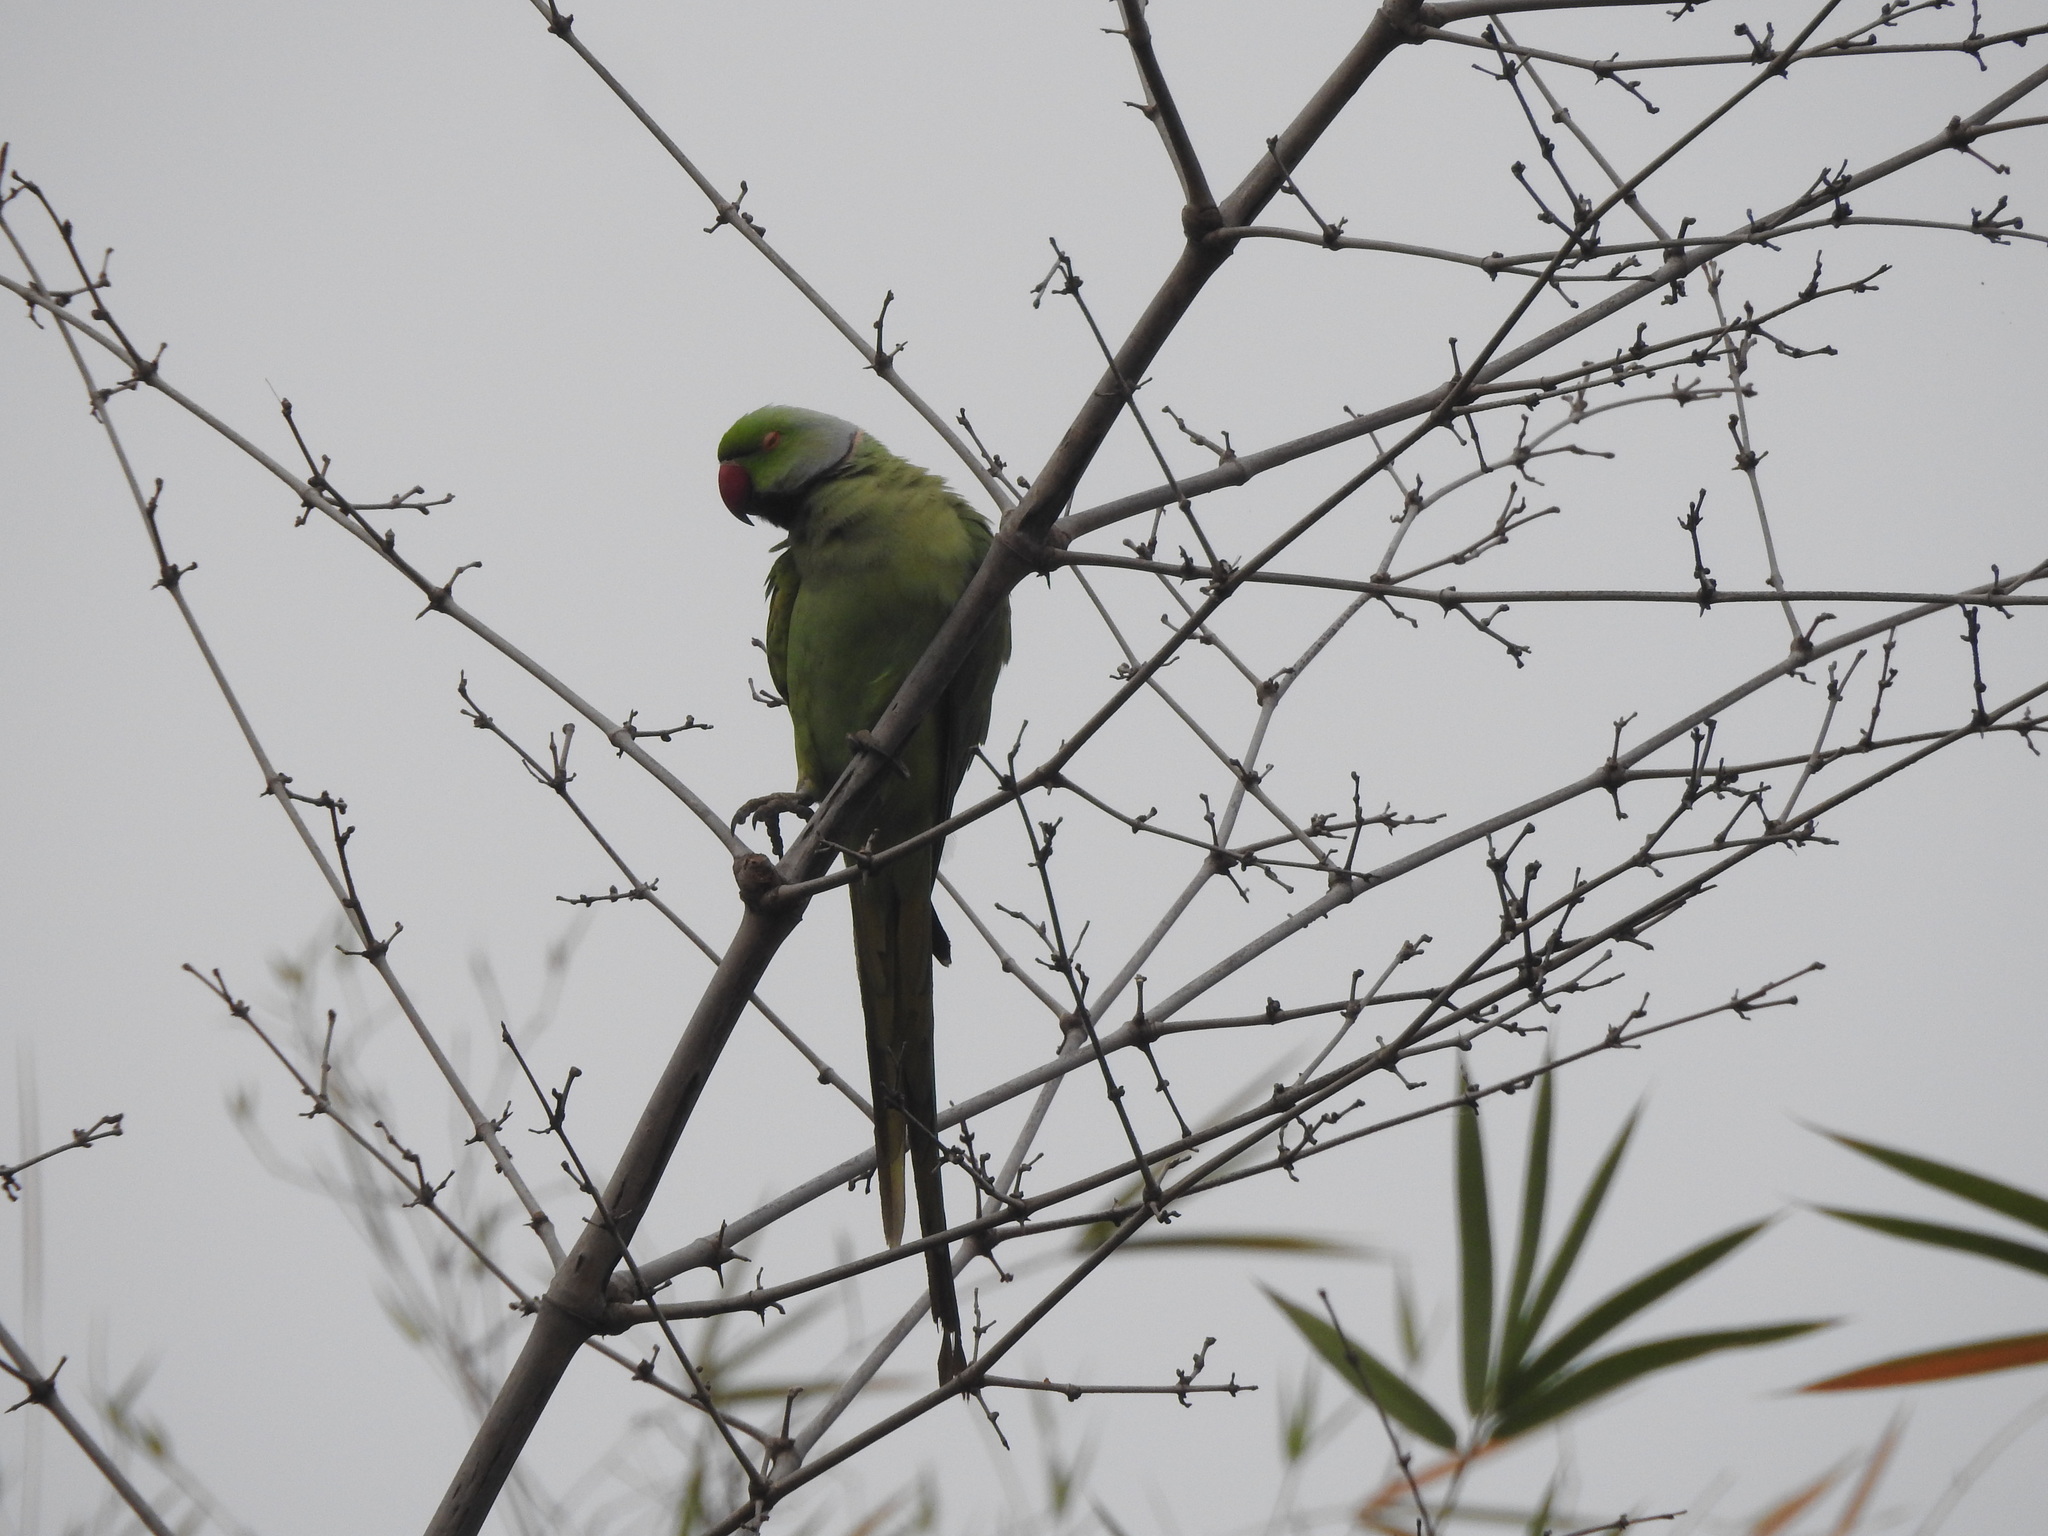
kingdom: Animalia
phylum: Chordata
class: Aves
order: Psittaciformes
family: Psittacidae
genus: Psittacula
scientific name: Psittacula krameri
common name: Rose-ringed parakeet
